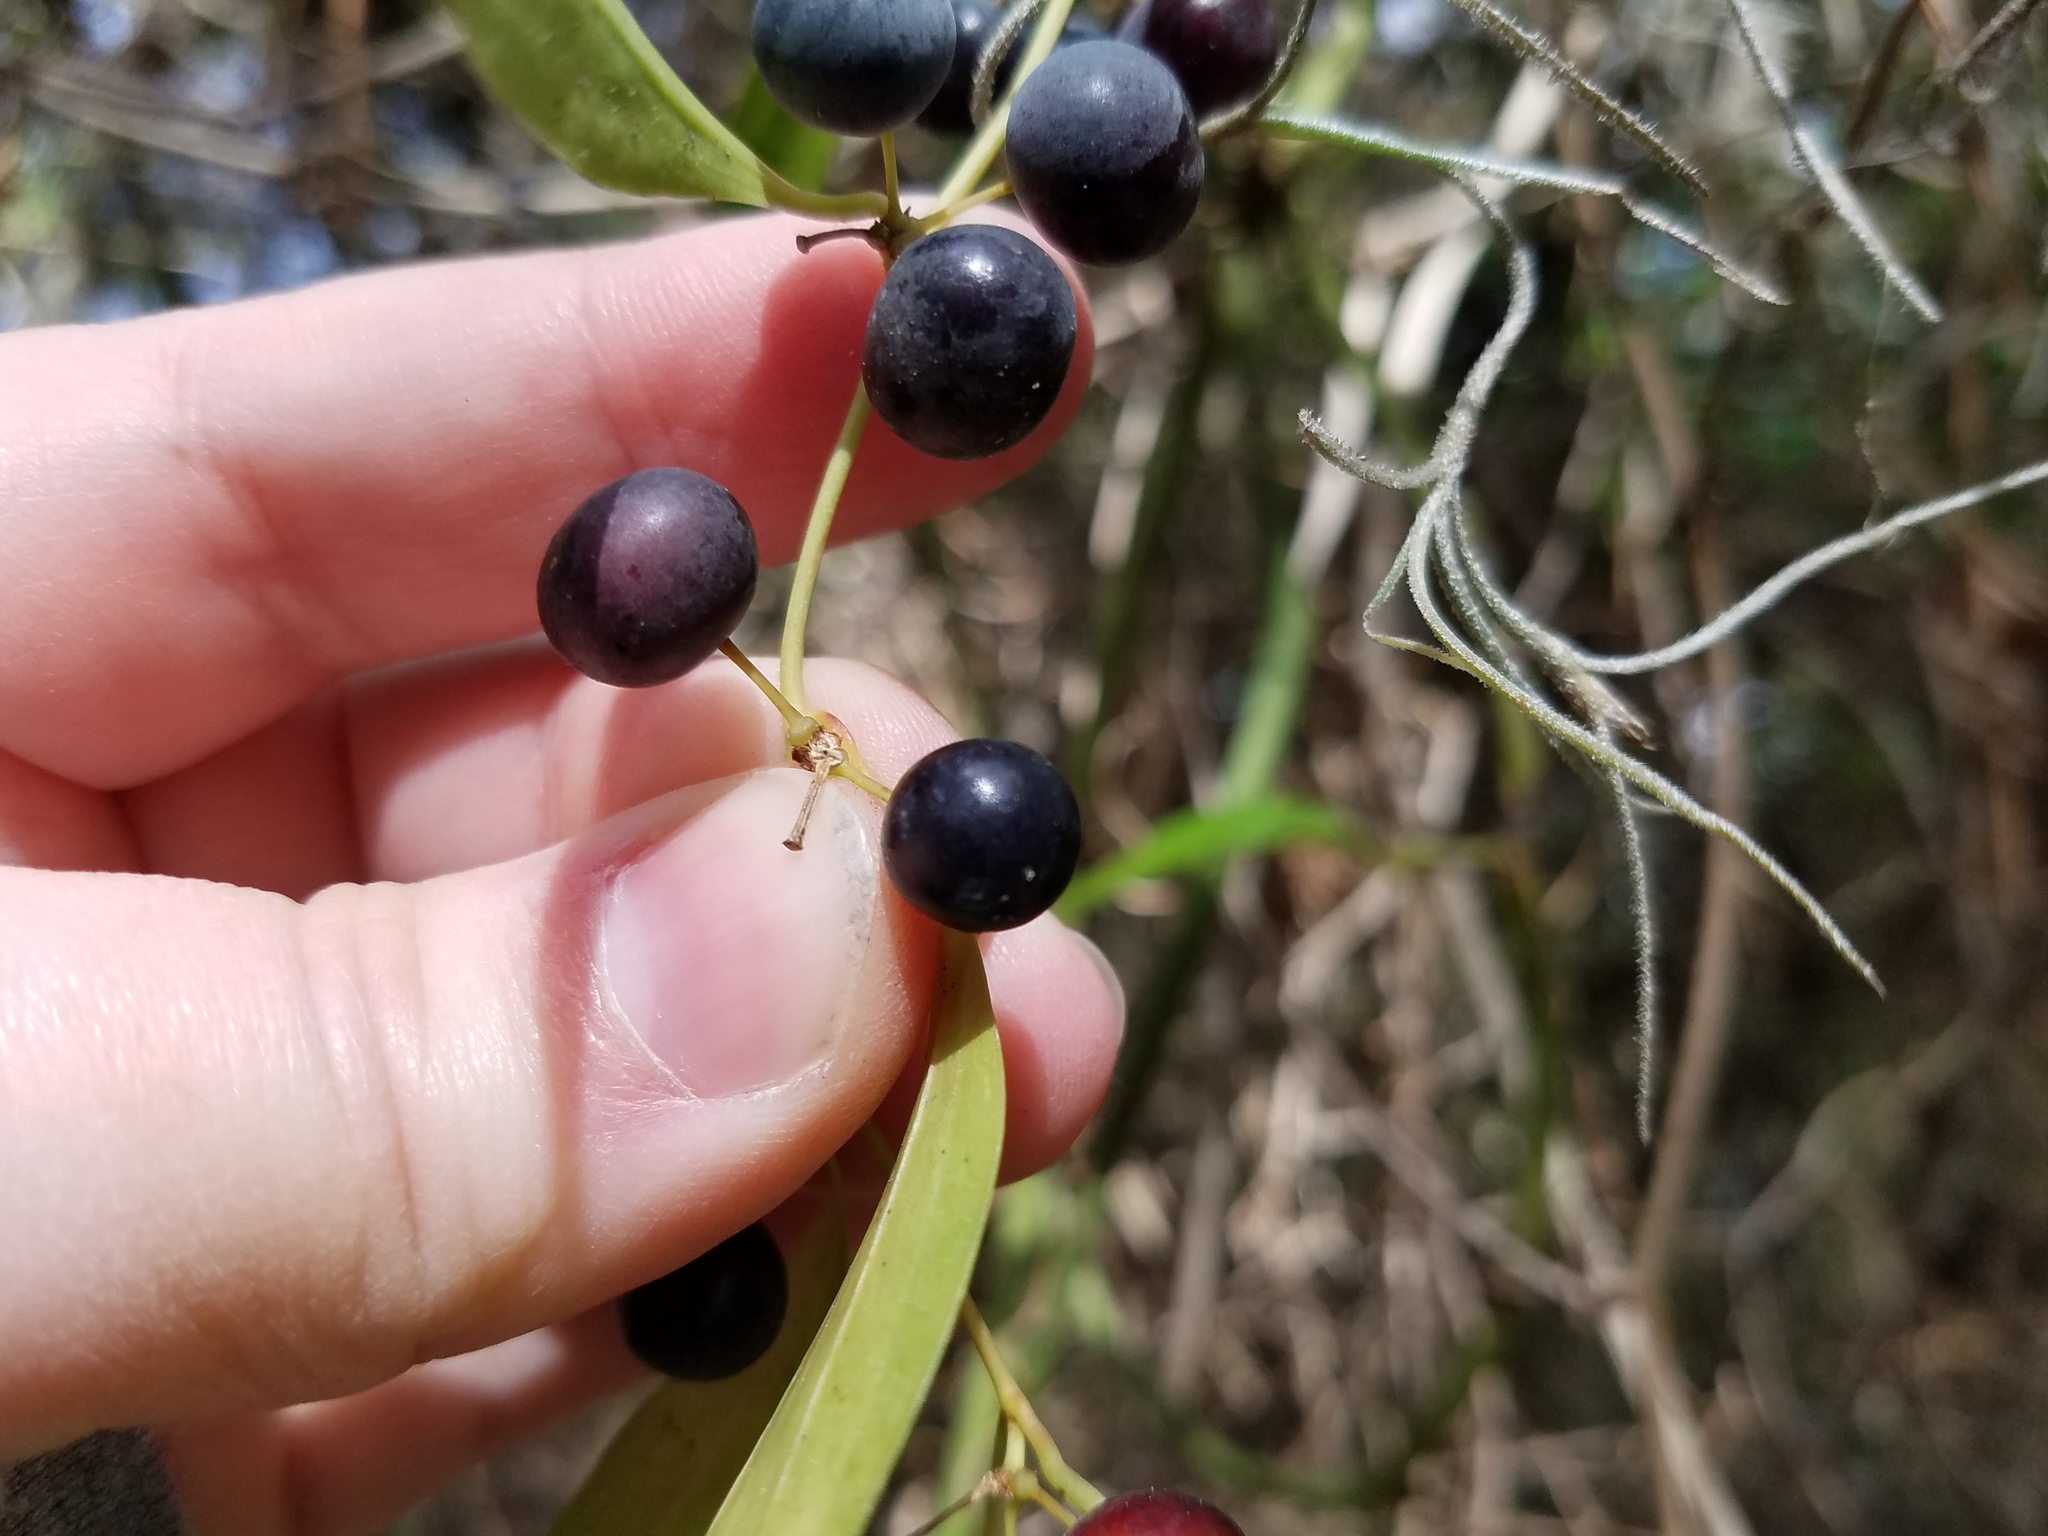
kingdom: Plantae
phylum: Tracheophyta
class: Liliopsida
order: Liliales
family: Smilacaceae
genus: Smilax
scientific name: Smilax laurifolia
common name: Bamboovine
